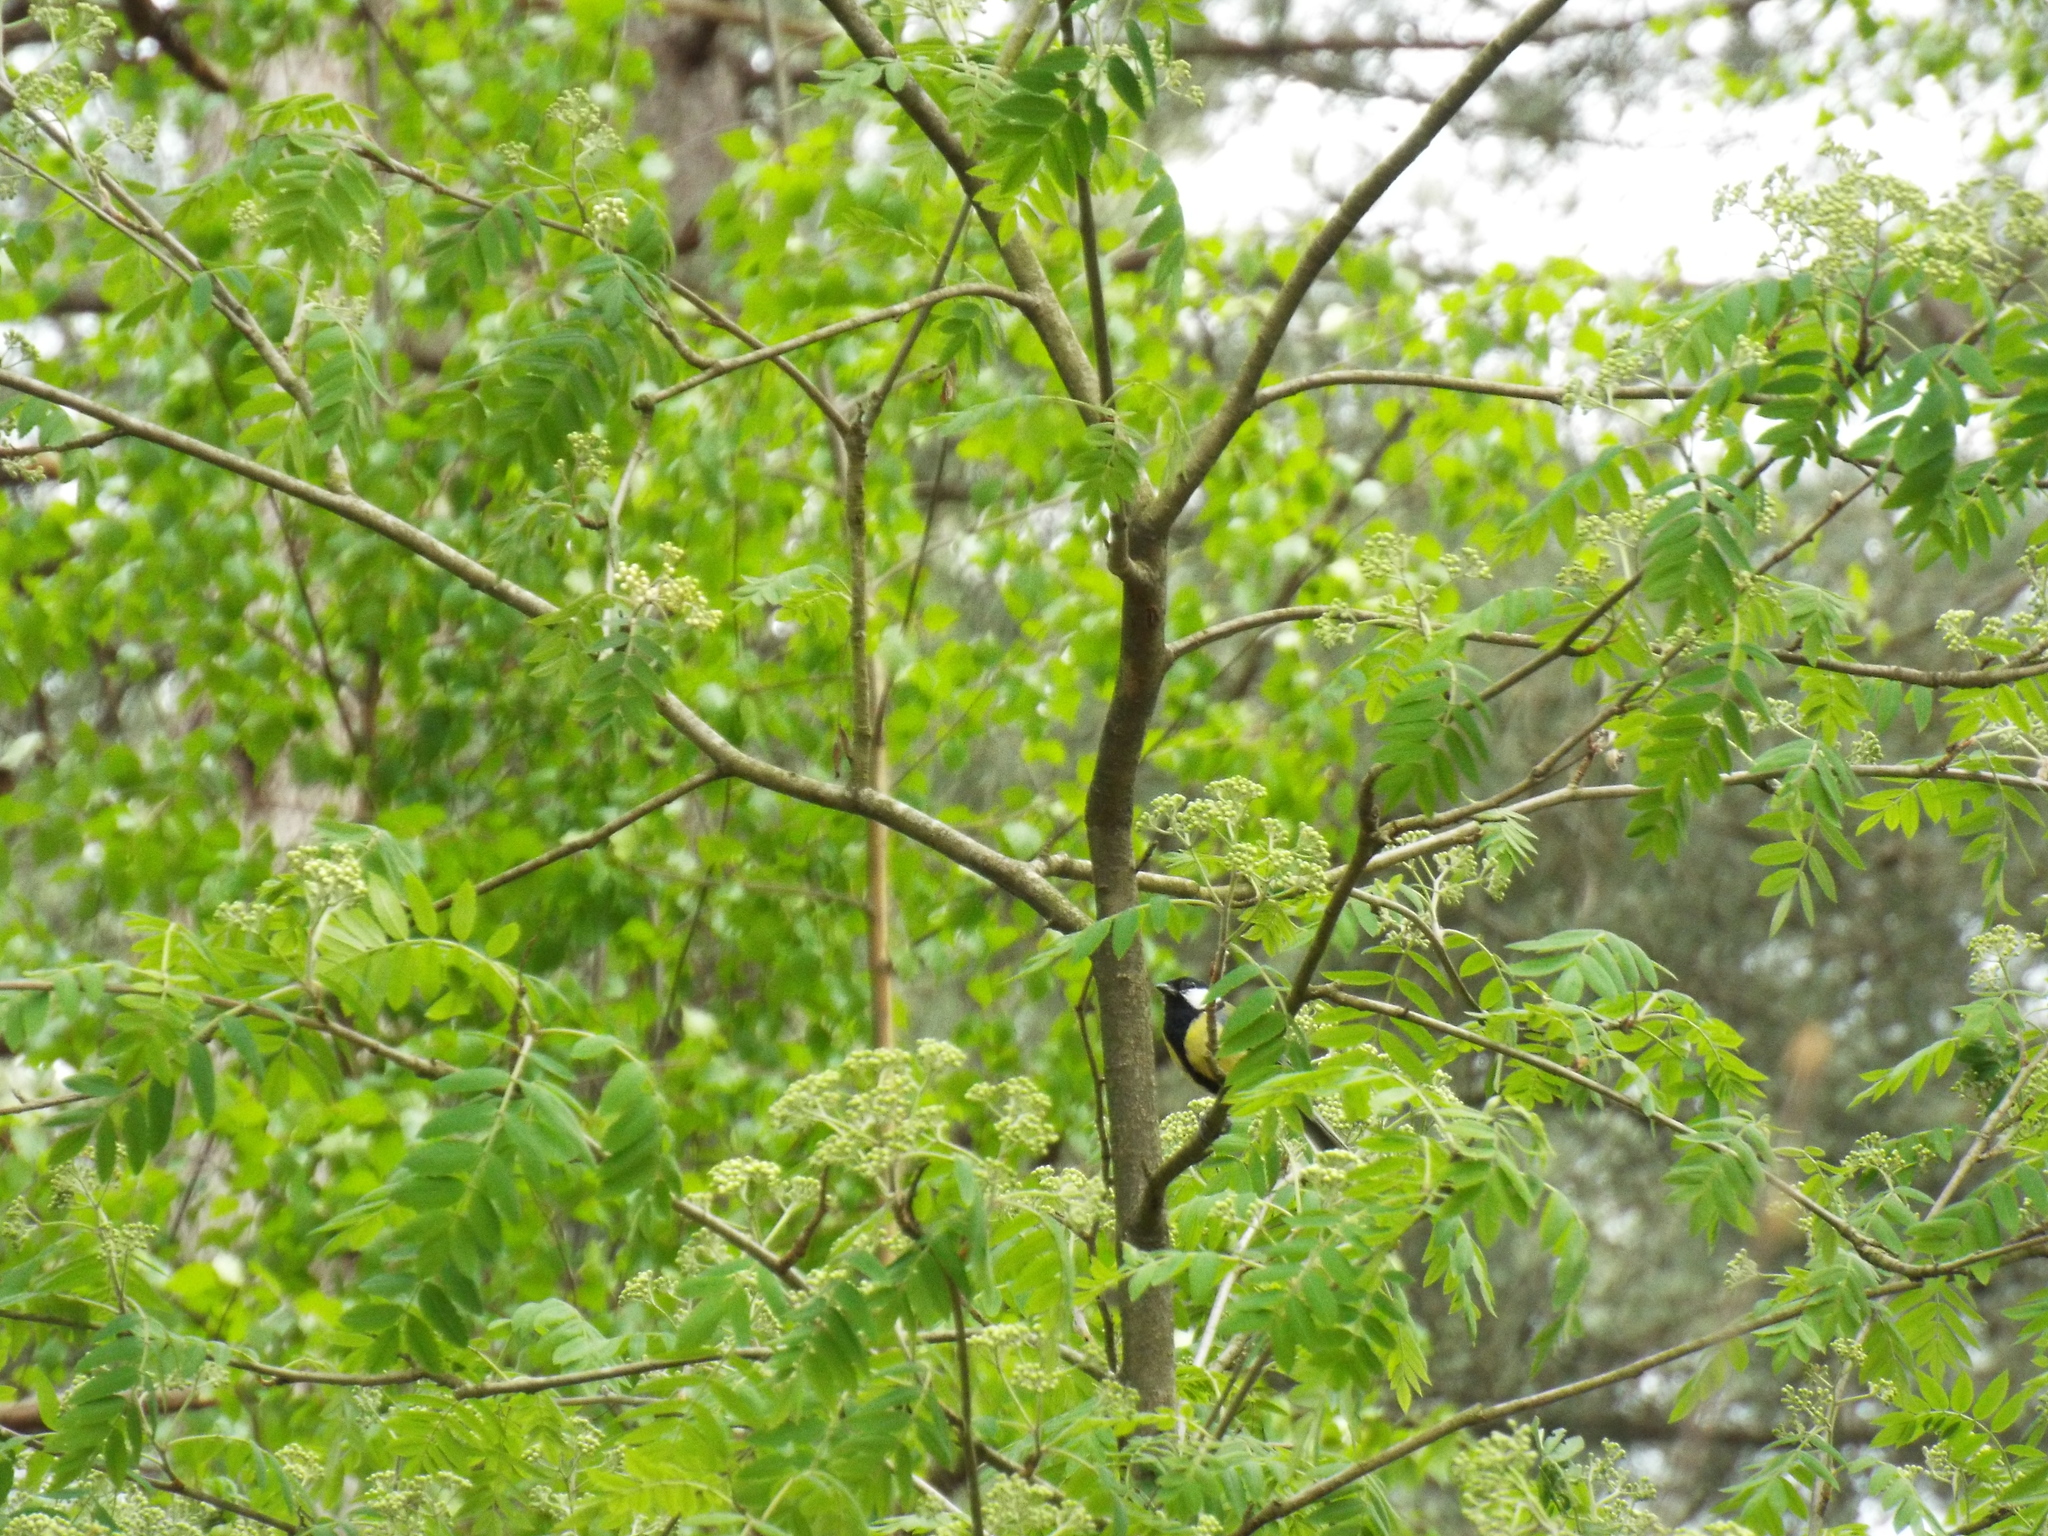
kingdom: Animalia
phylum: Chordata
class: Aves
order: Passeriformes
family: Paridae
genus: Parus
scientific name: Parus major
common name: Great tit
